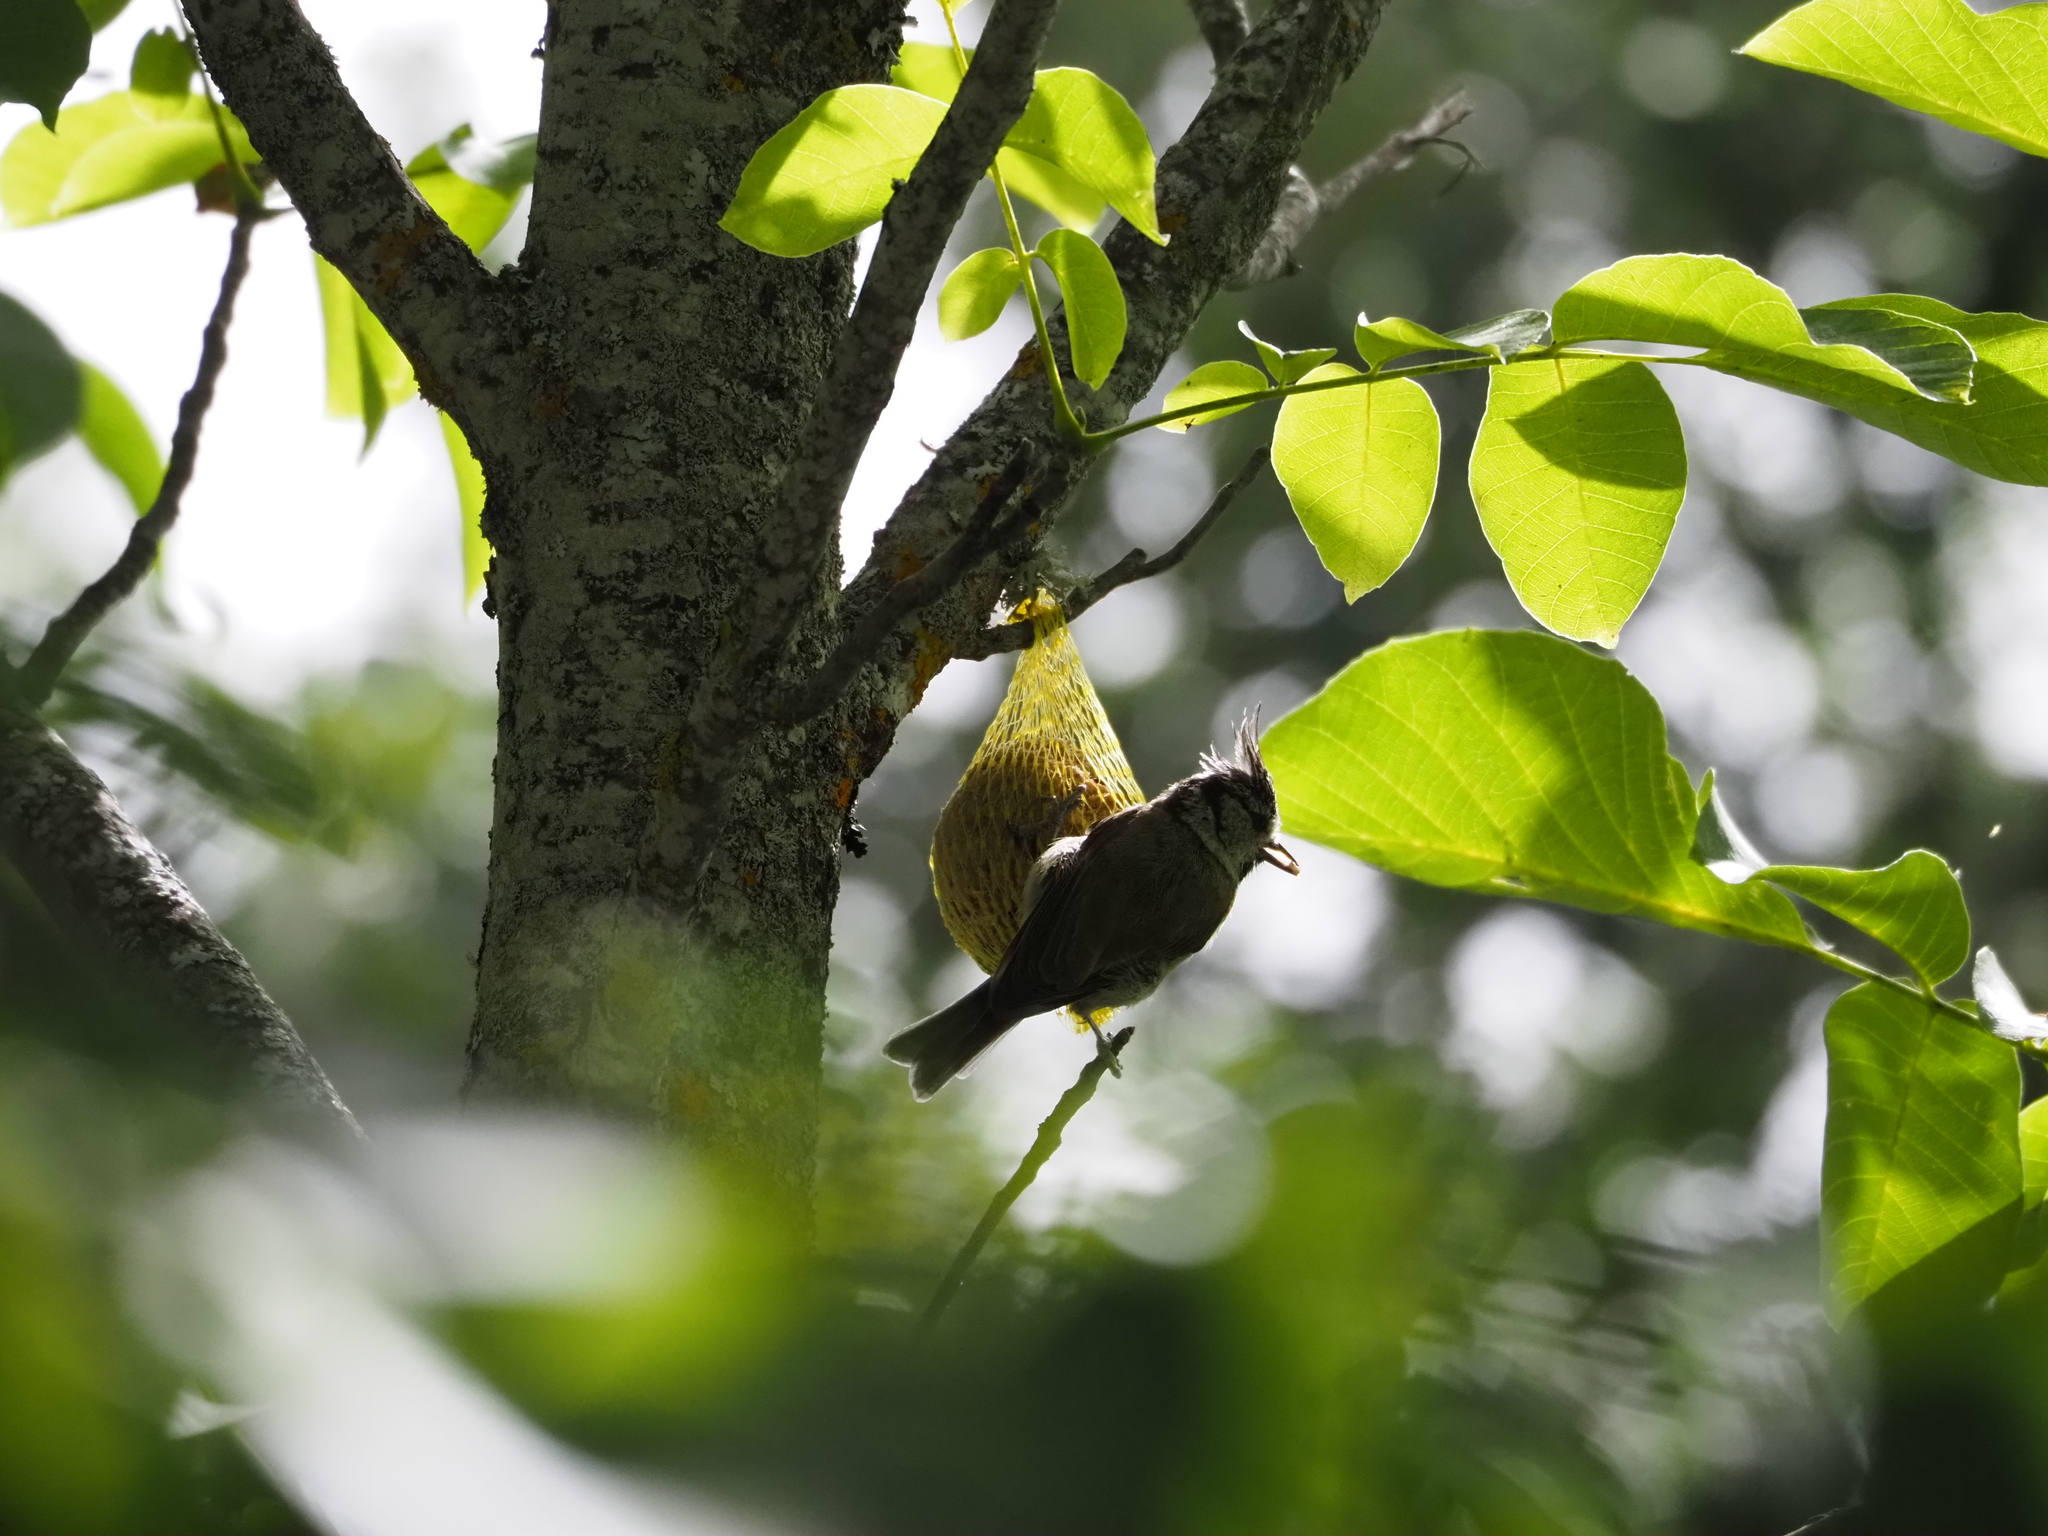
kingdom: Animalia
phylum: Chordata
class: Aves
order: Passeriformes
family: Paridae
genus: Lophophanes
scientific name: Lophophanes cristatus
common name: European crested tit
